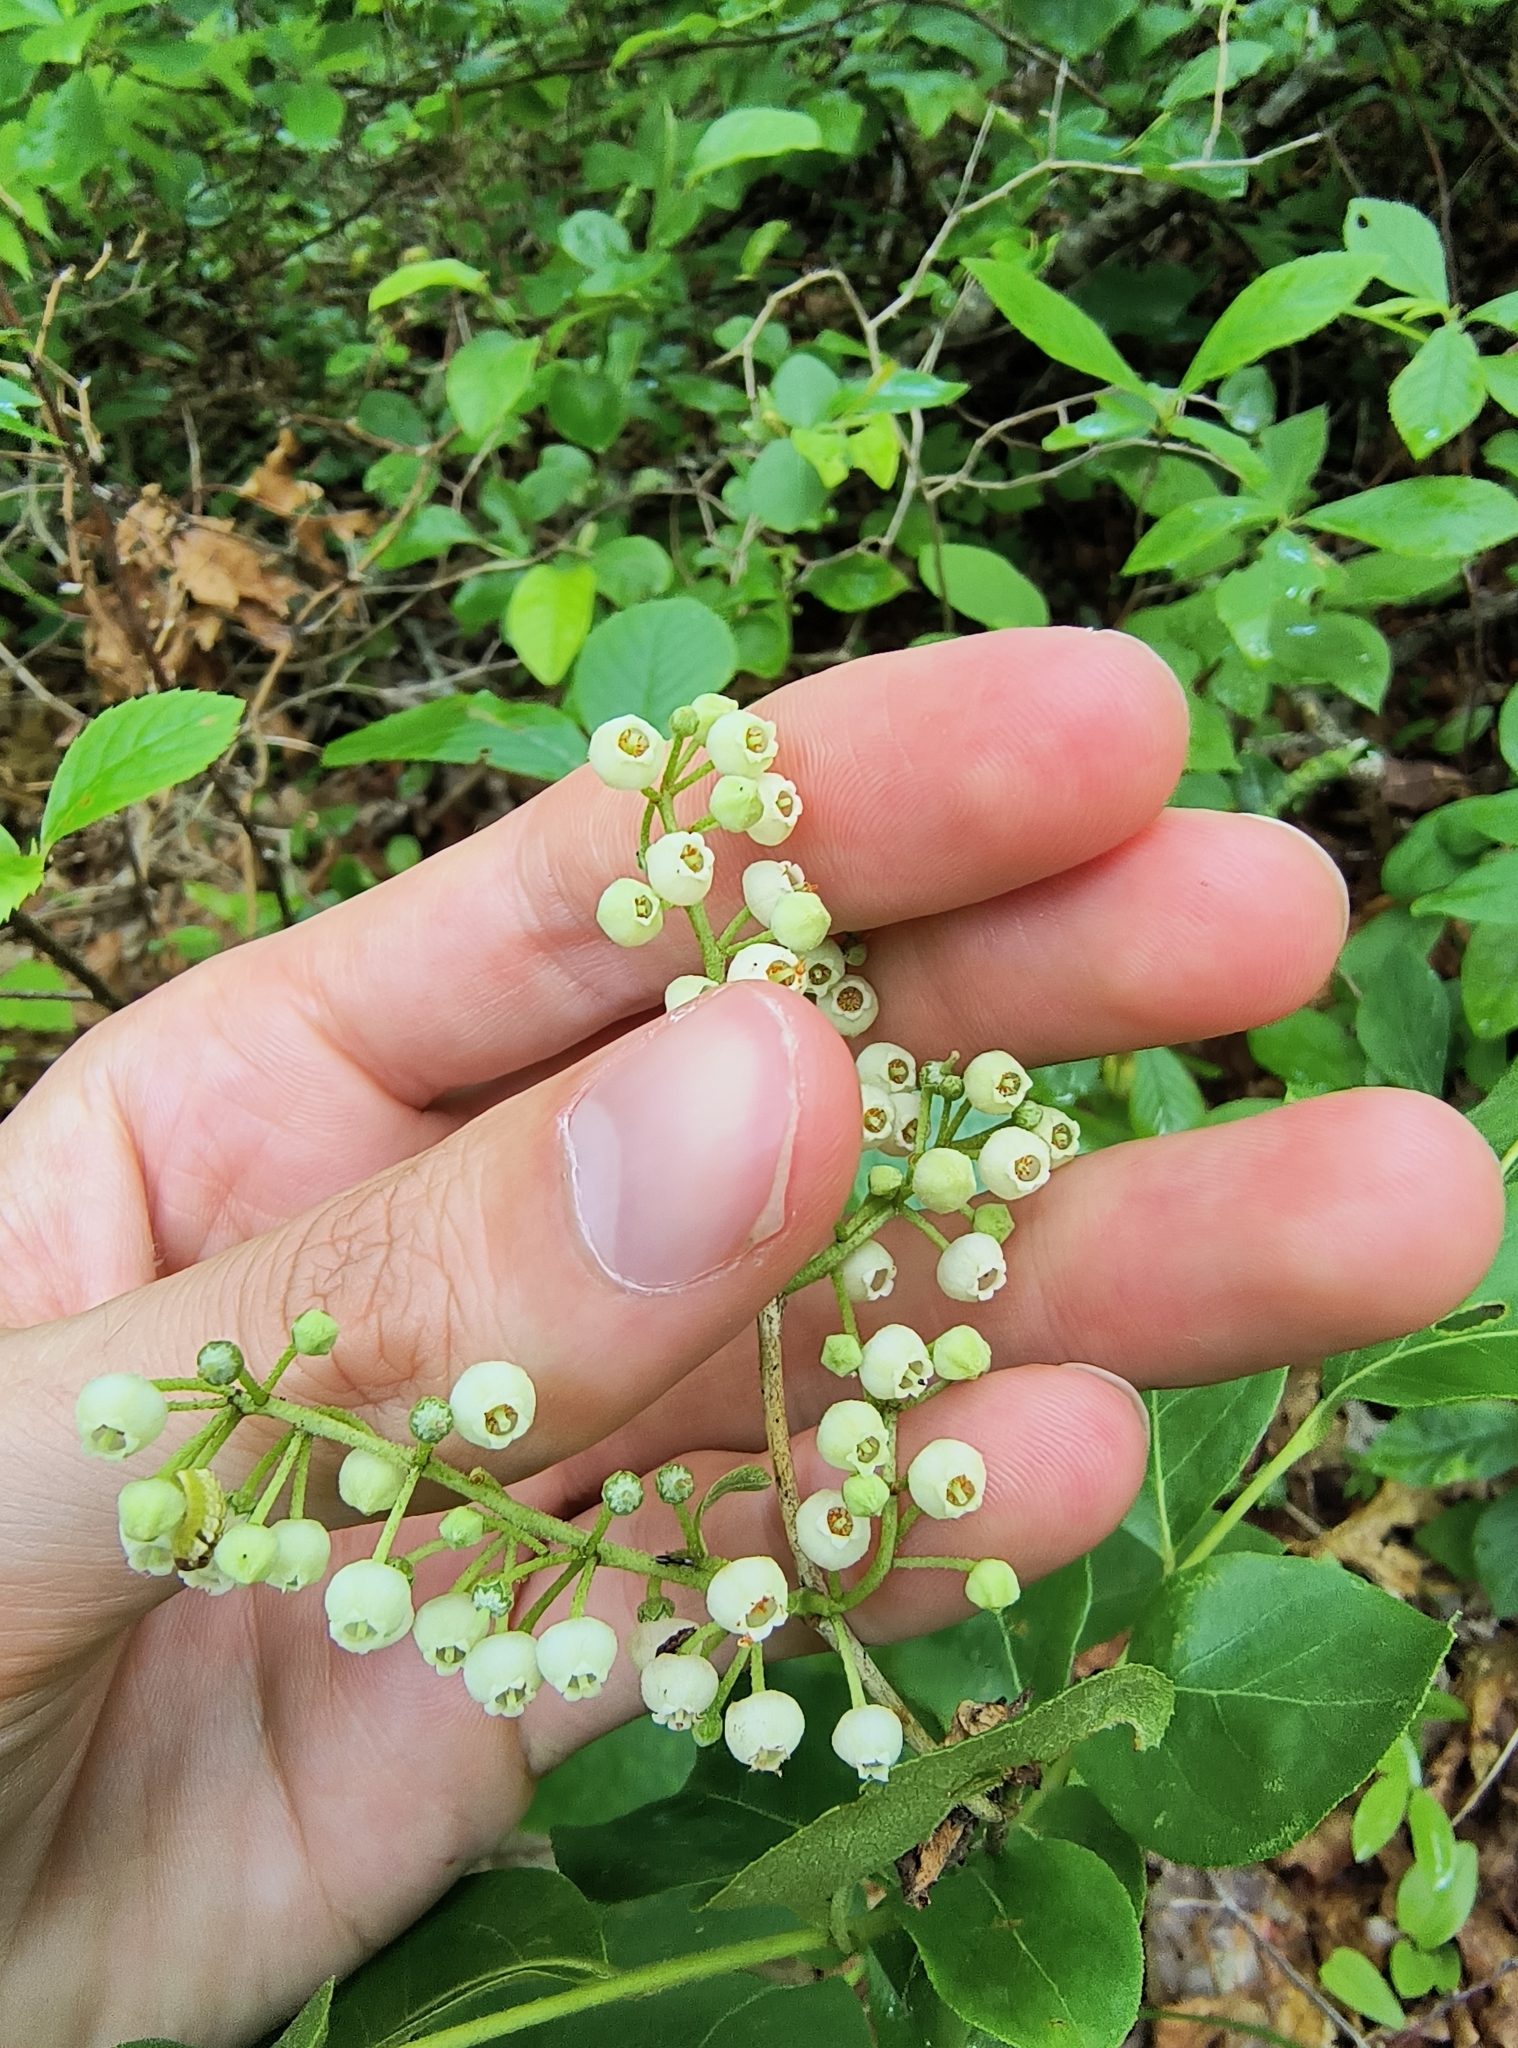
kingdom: Plantae
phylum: Tracheophyta
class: Magnoliopsida
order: Ericales
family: Ericaceae
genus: Lyonia
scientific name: Lyonia ligustrina
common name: Maleberry
